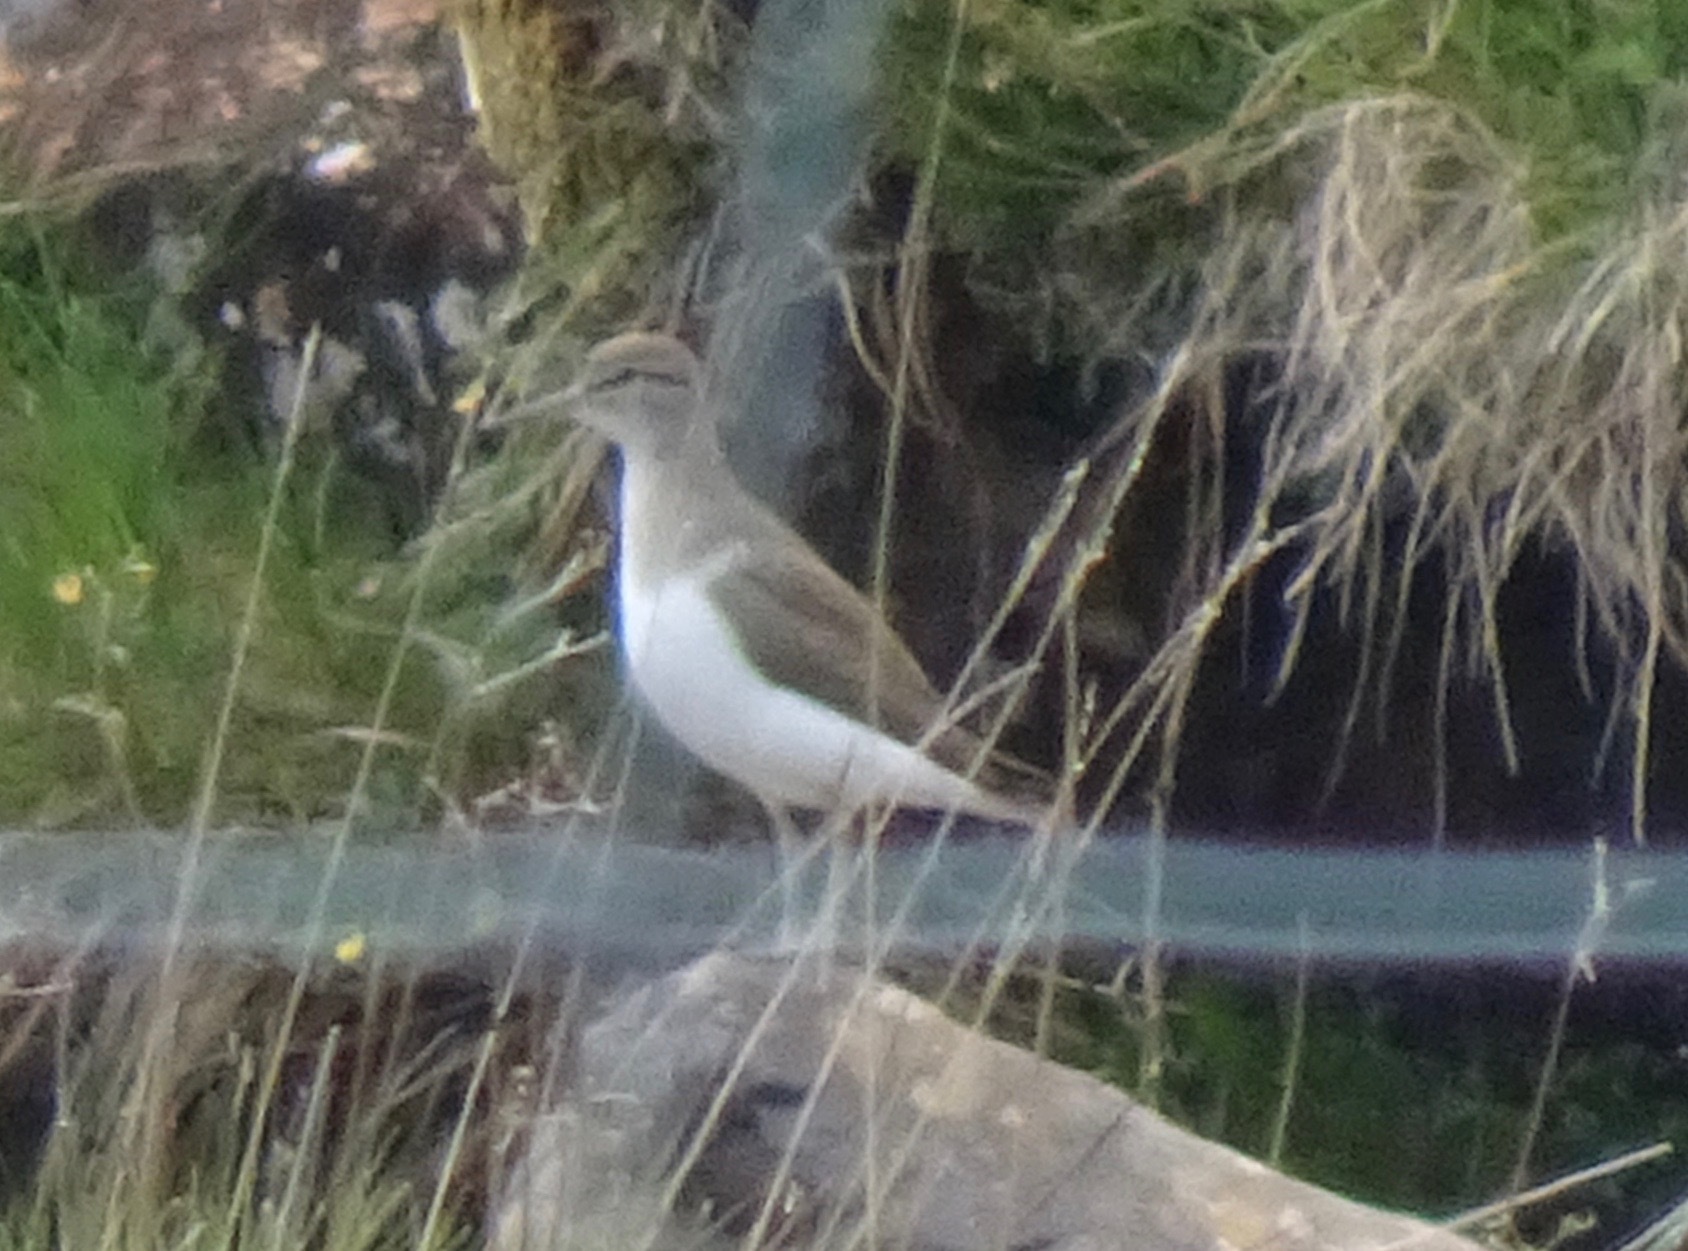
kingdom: Animalia
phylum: Chordata
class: Aves
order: Charadriiformes
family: Scolopacidae
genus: Actitis
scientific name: Actitis hypoleucos
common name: Common sandpiper
